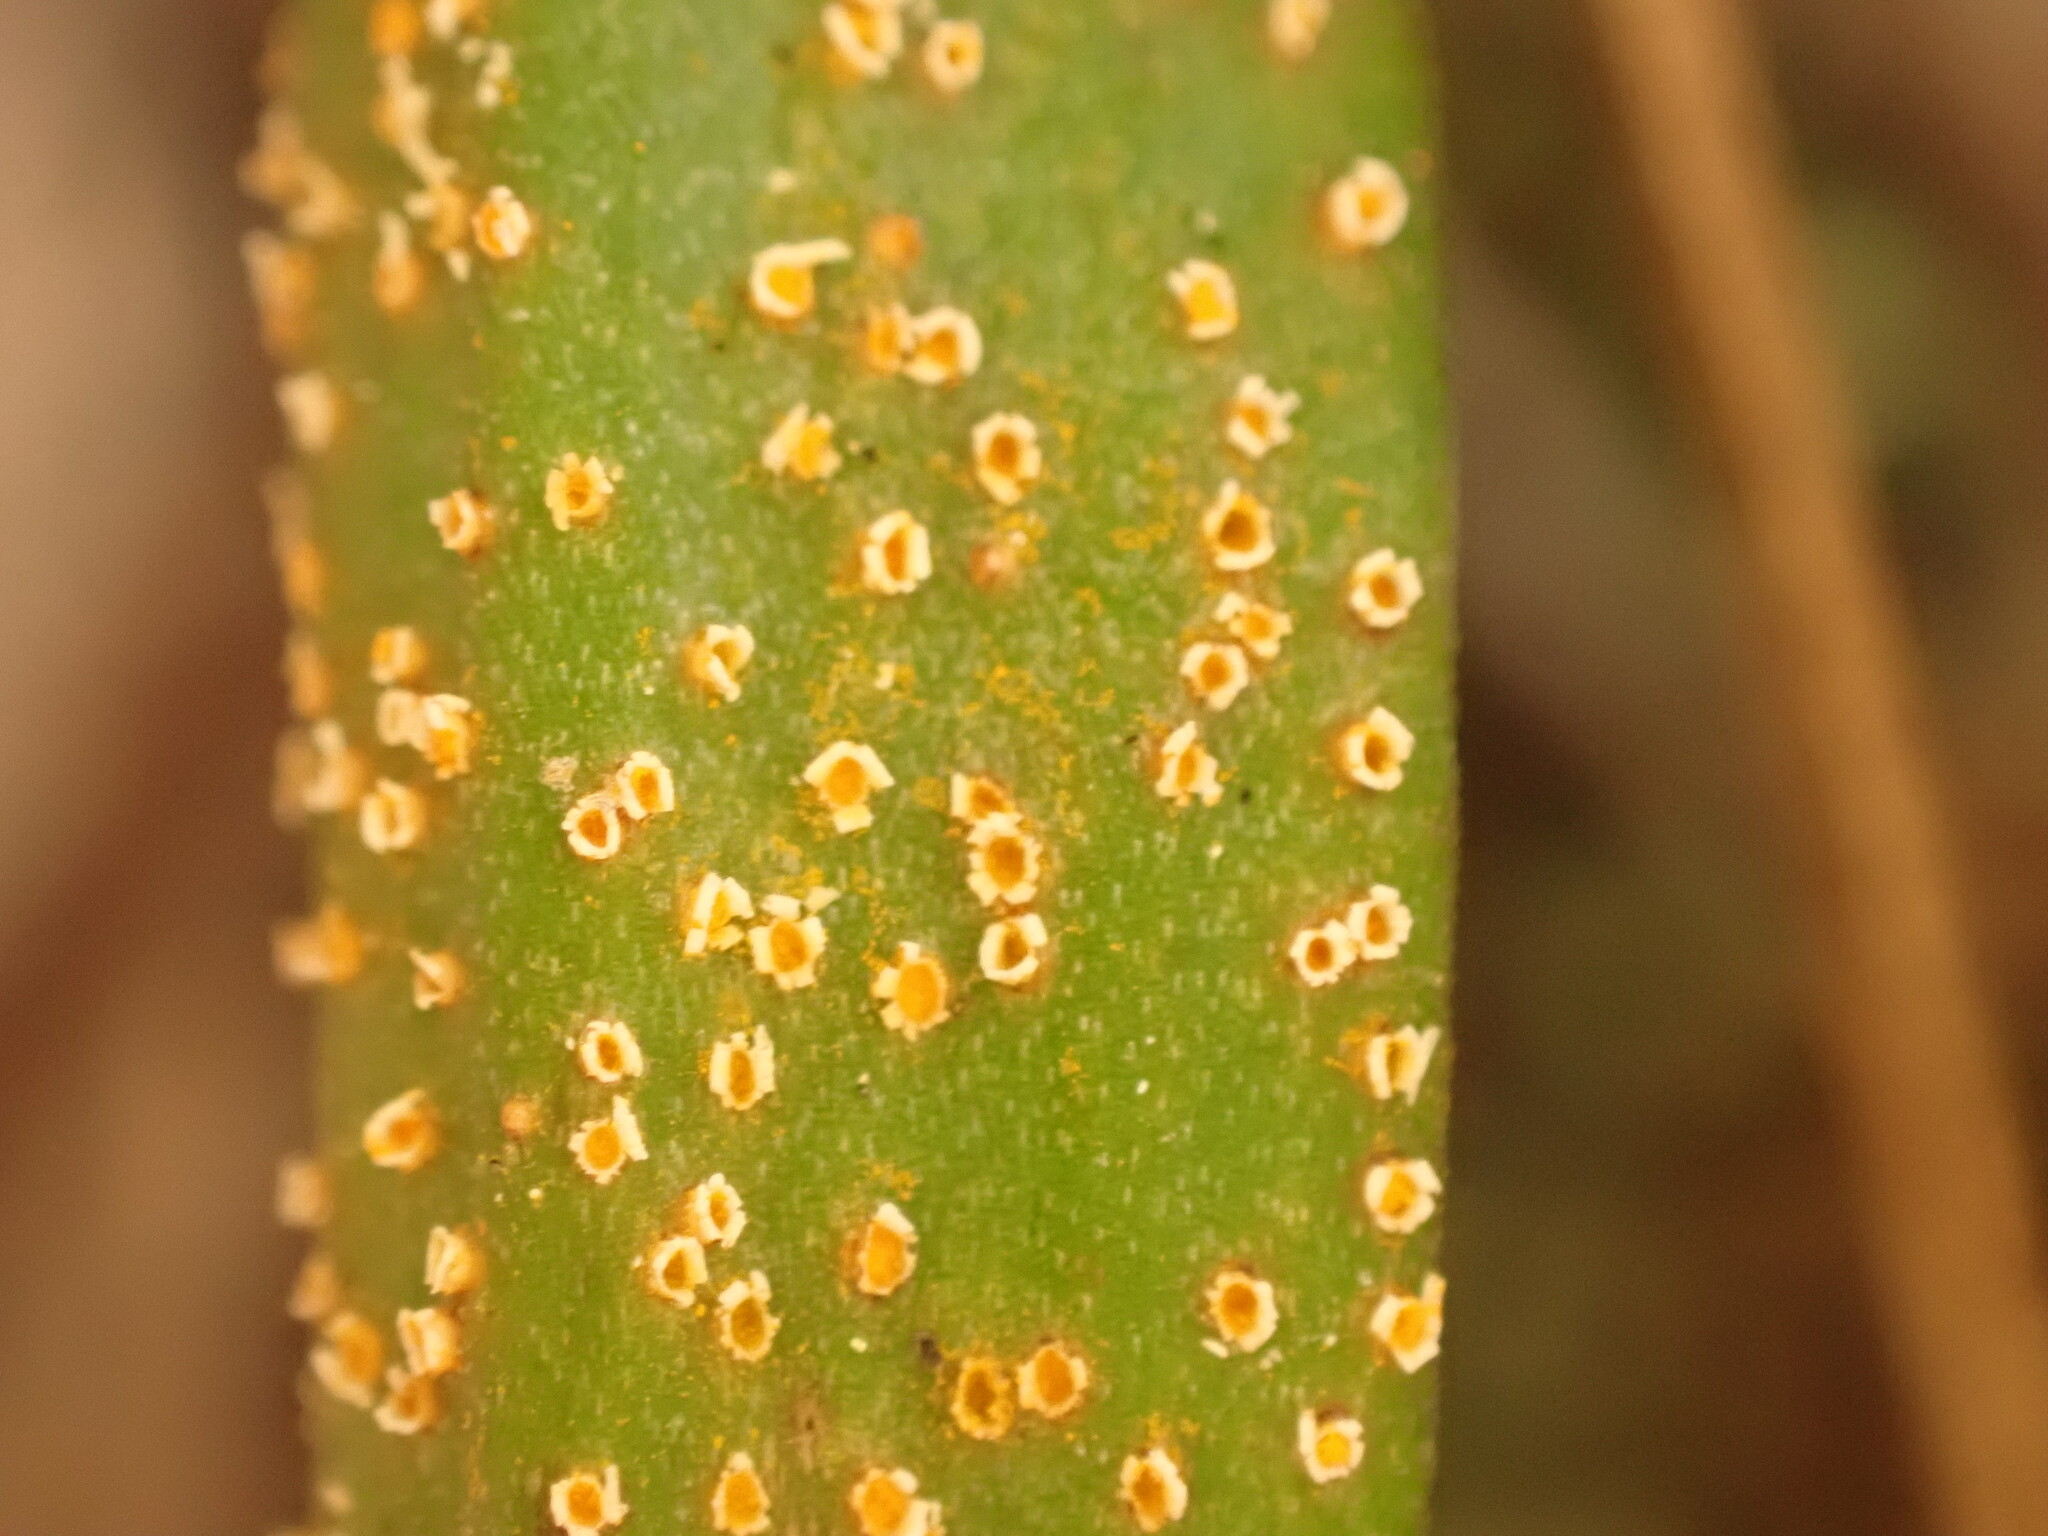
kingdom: Fungi
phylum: Basidiomycota
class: Pucciniomycetes
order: Pucciniales
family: Pucciniaceae
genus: Uromyces
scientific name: Uromyces thelymitrae
